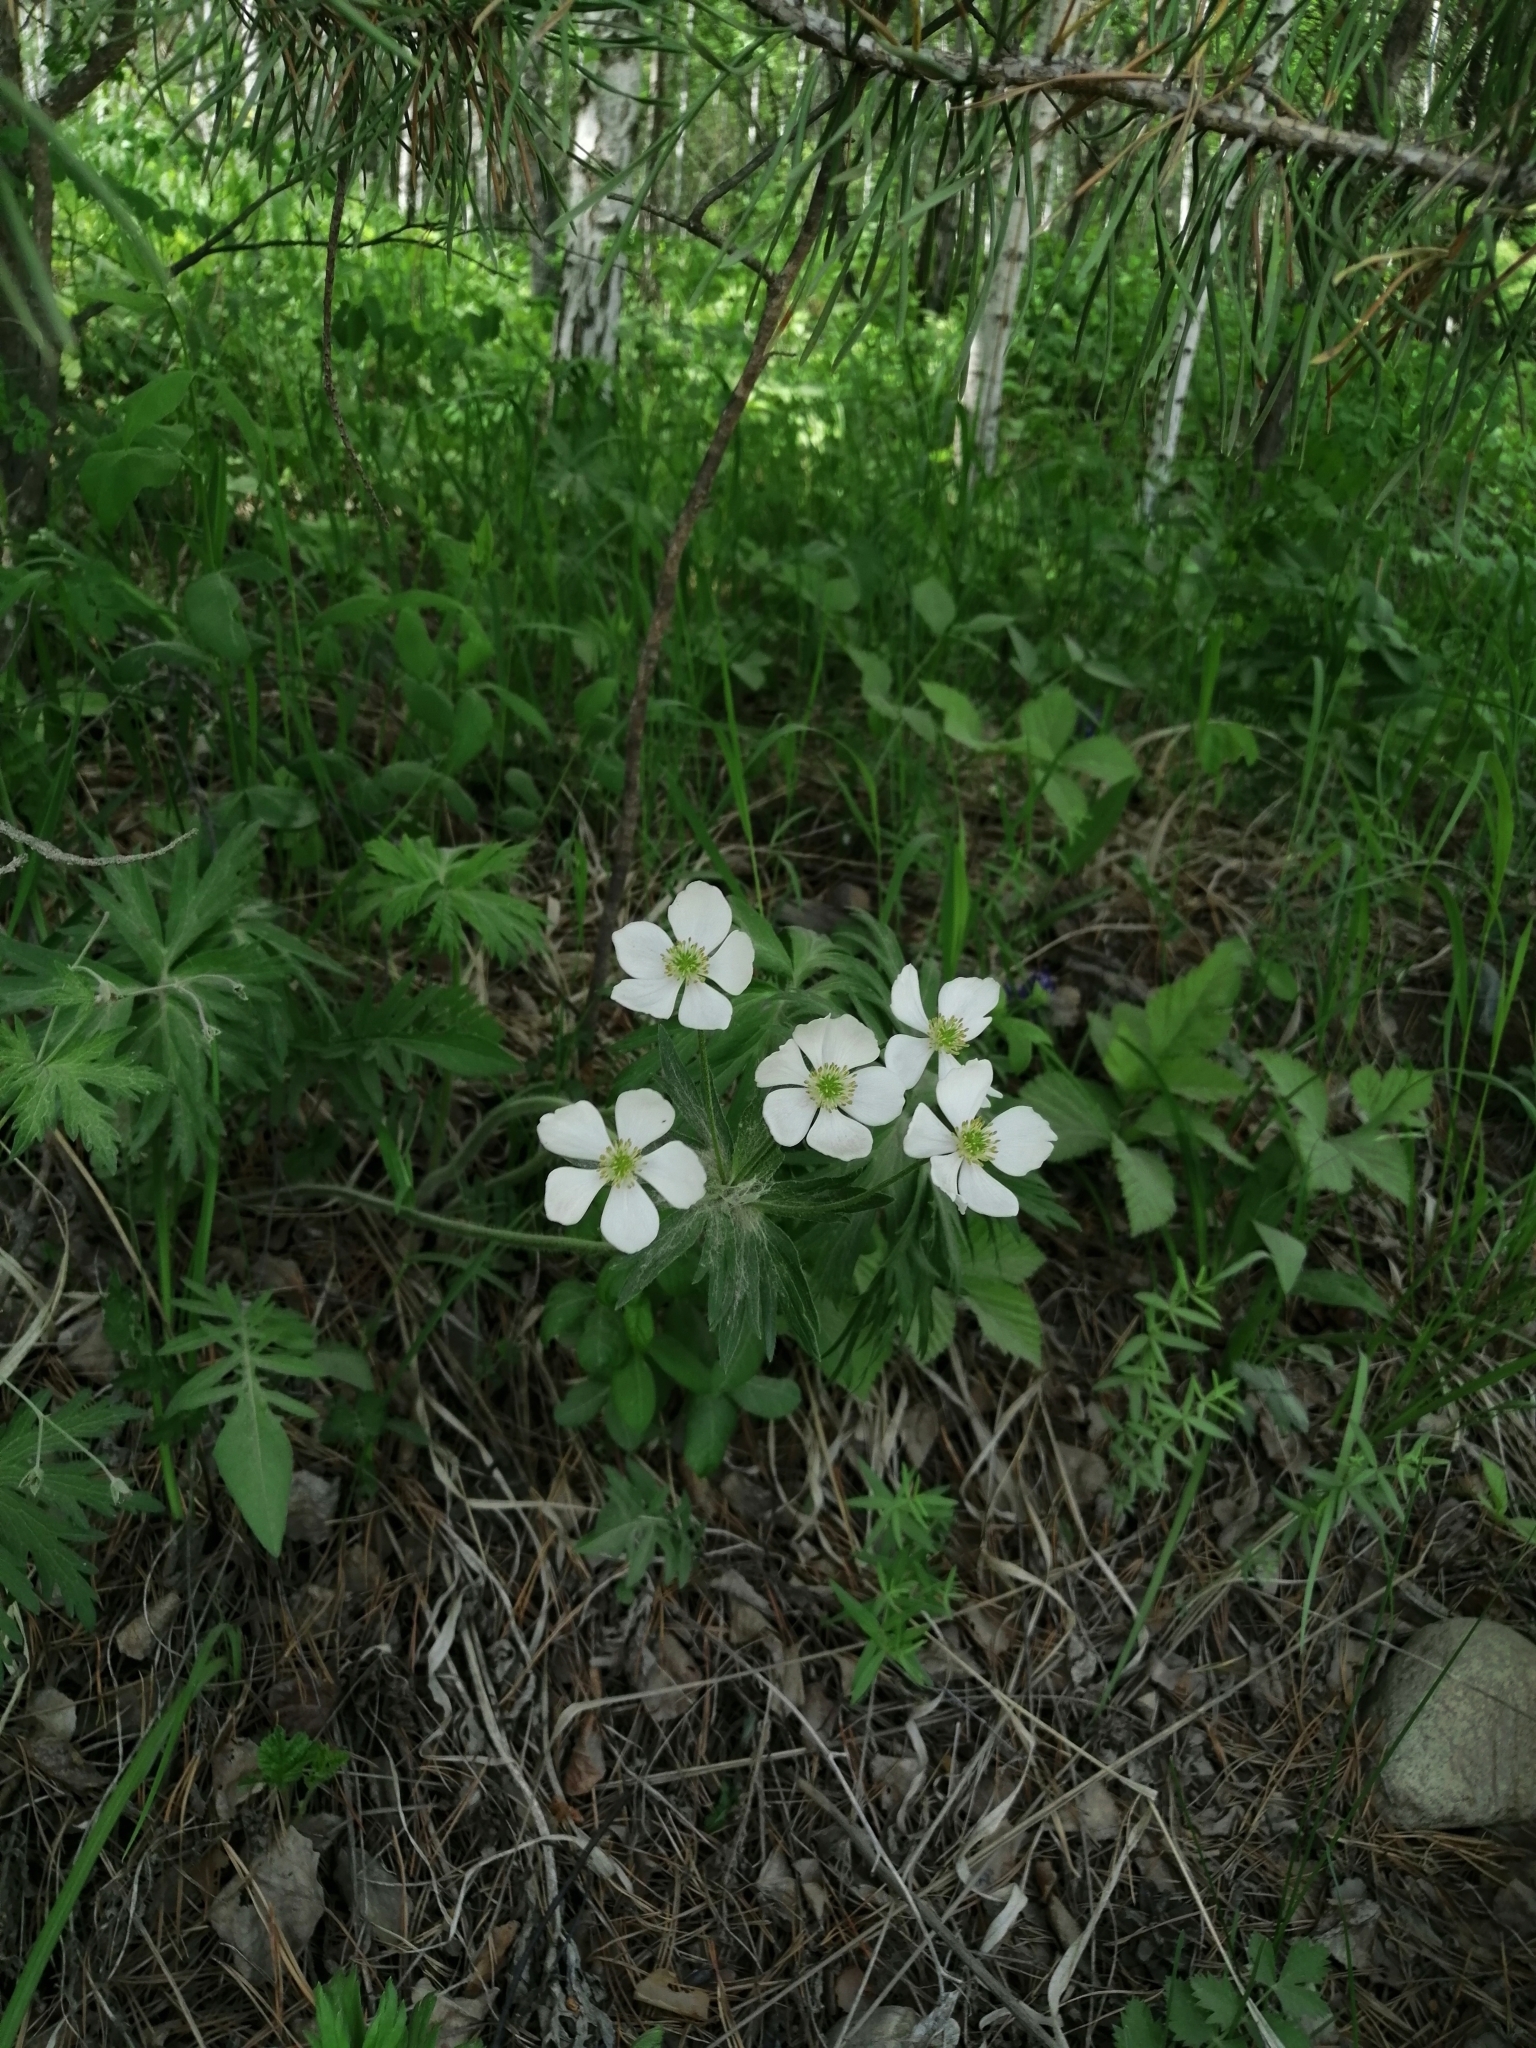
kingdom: Plantae
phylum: Tracheophyta
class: Magnoliopsida
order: Ranunculales
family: Ranunculaceae
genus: Anemonastrum
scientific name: Anemonastrum narcissiflorum
